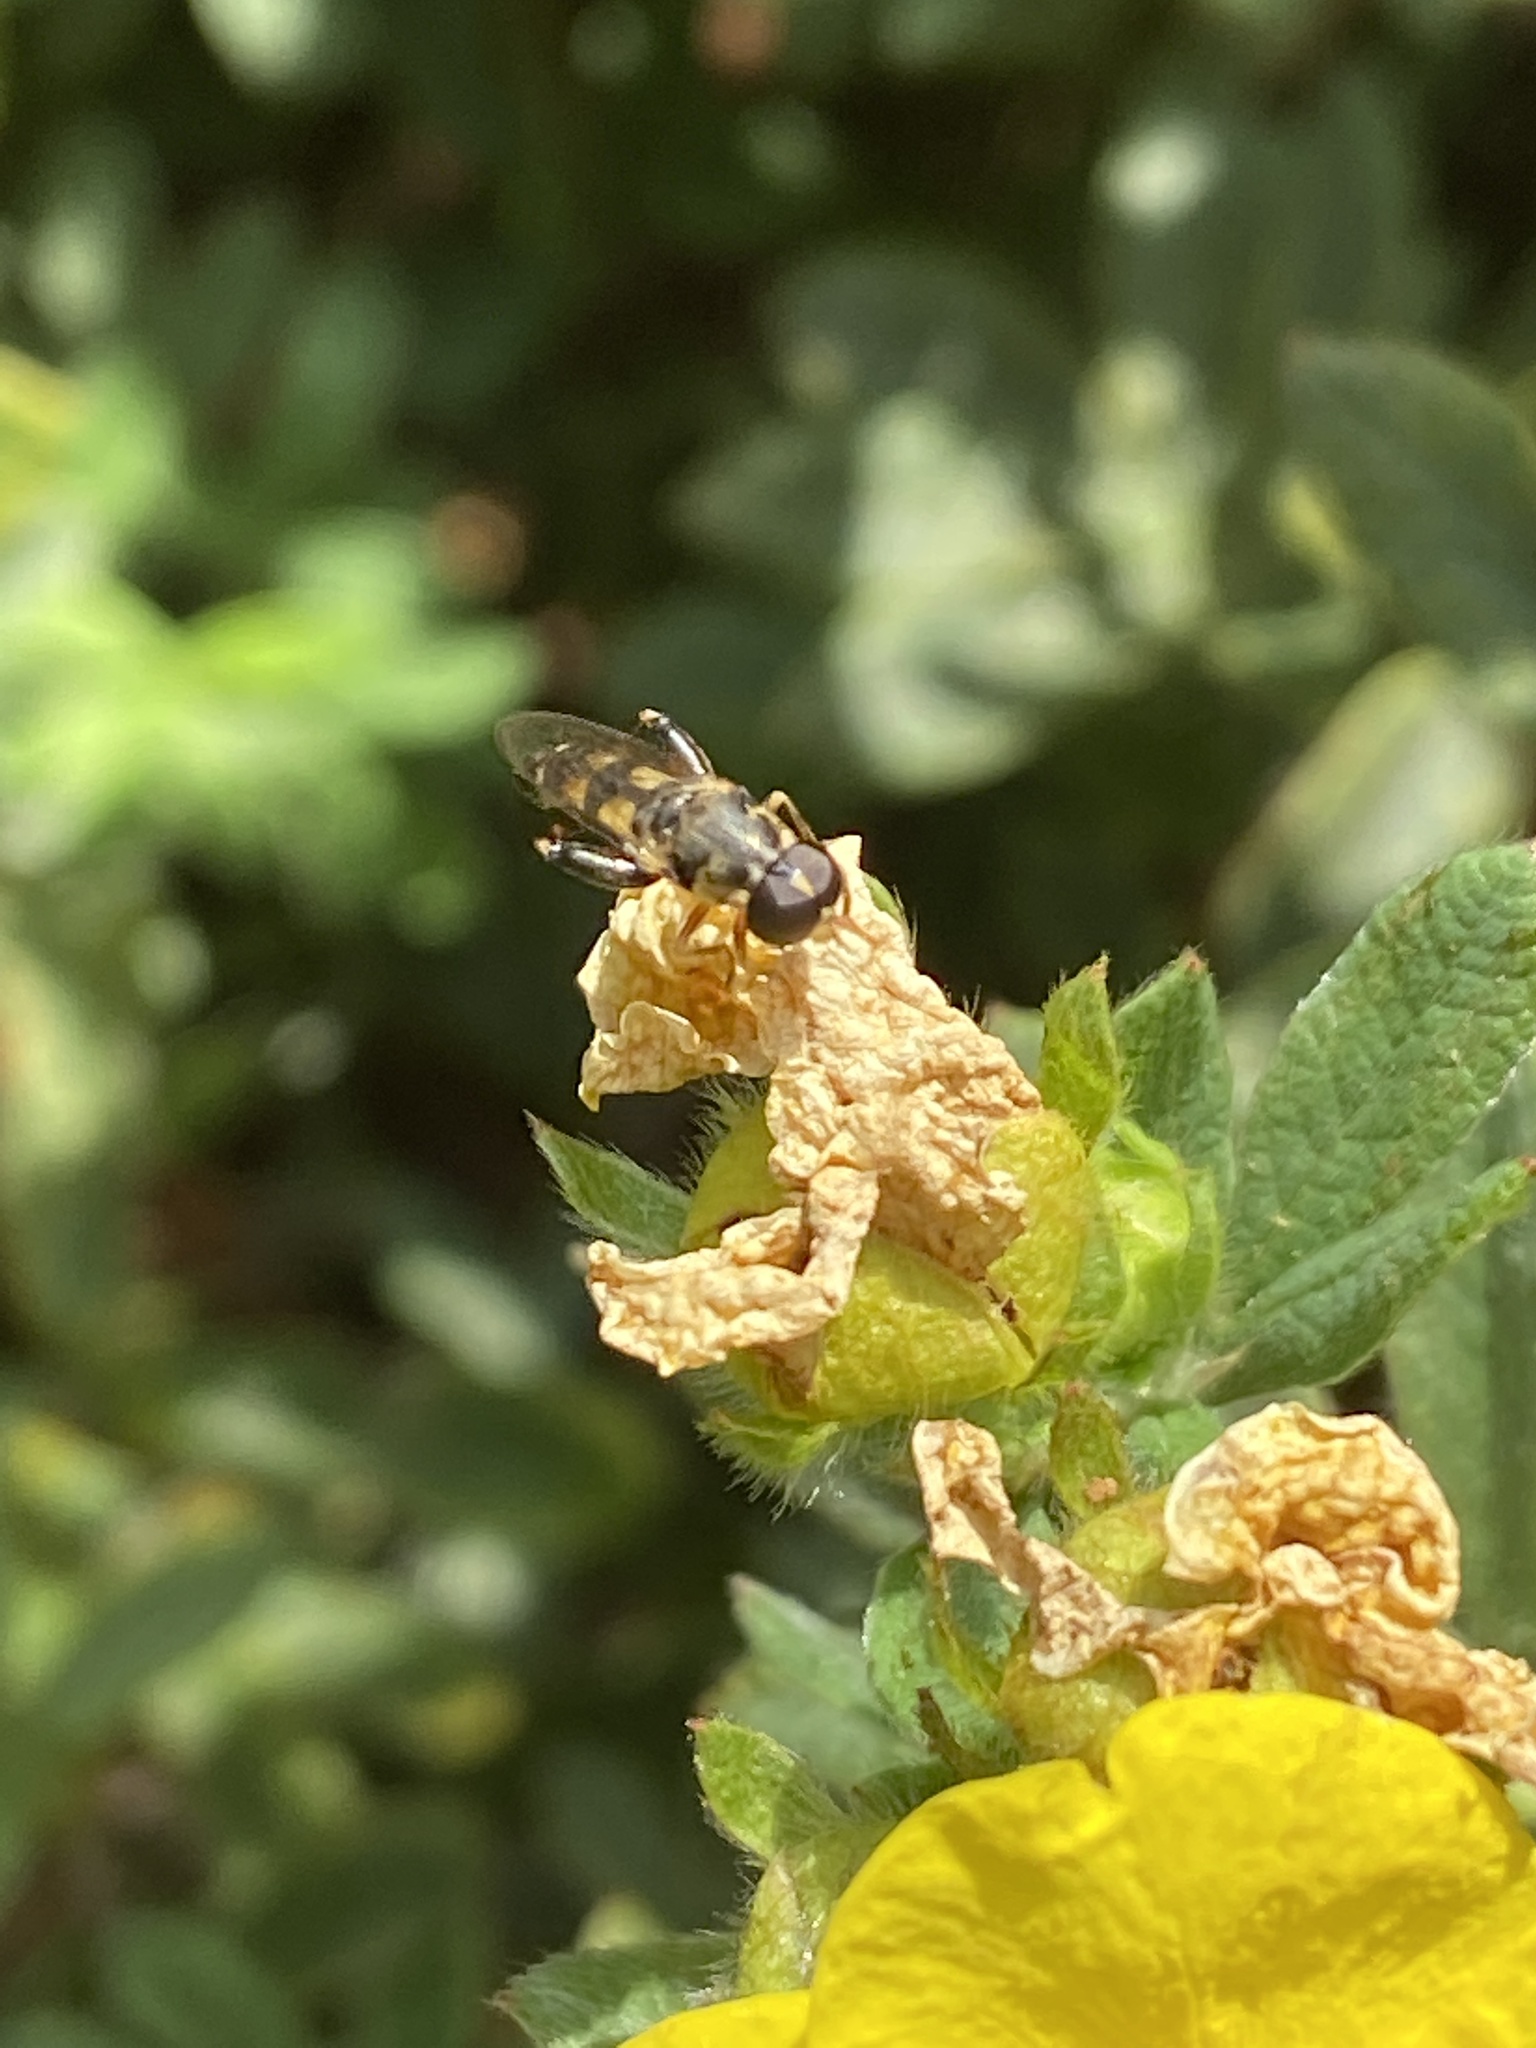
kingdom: Animalia
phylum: Arthropoda
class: Insecta
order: Diptera
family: Syrphidae
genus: Syritta
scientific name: Syritta pipiens
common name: Hover fly
